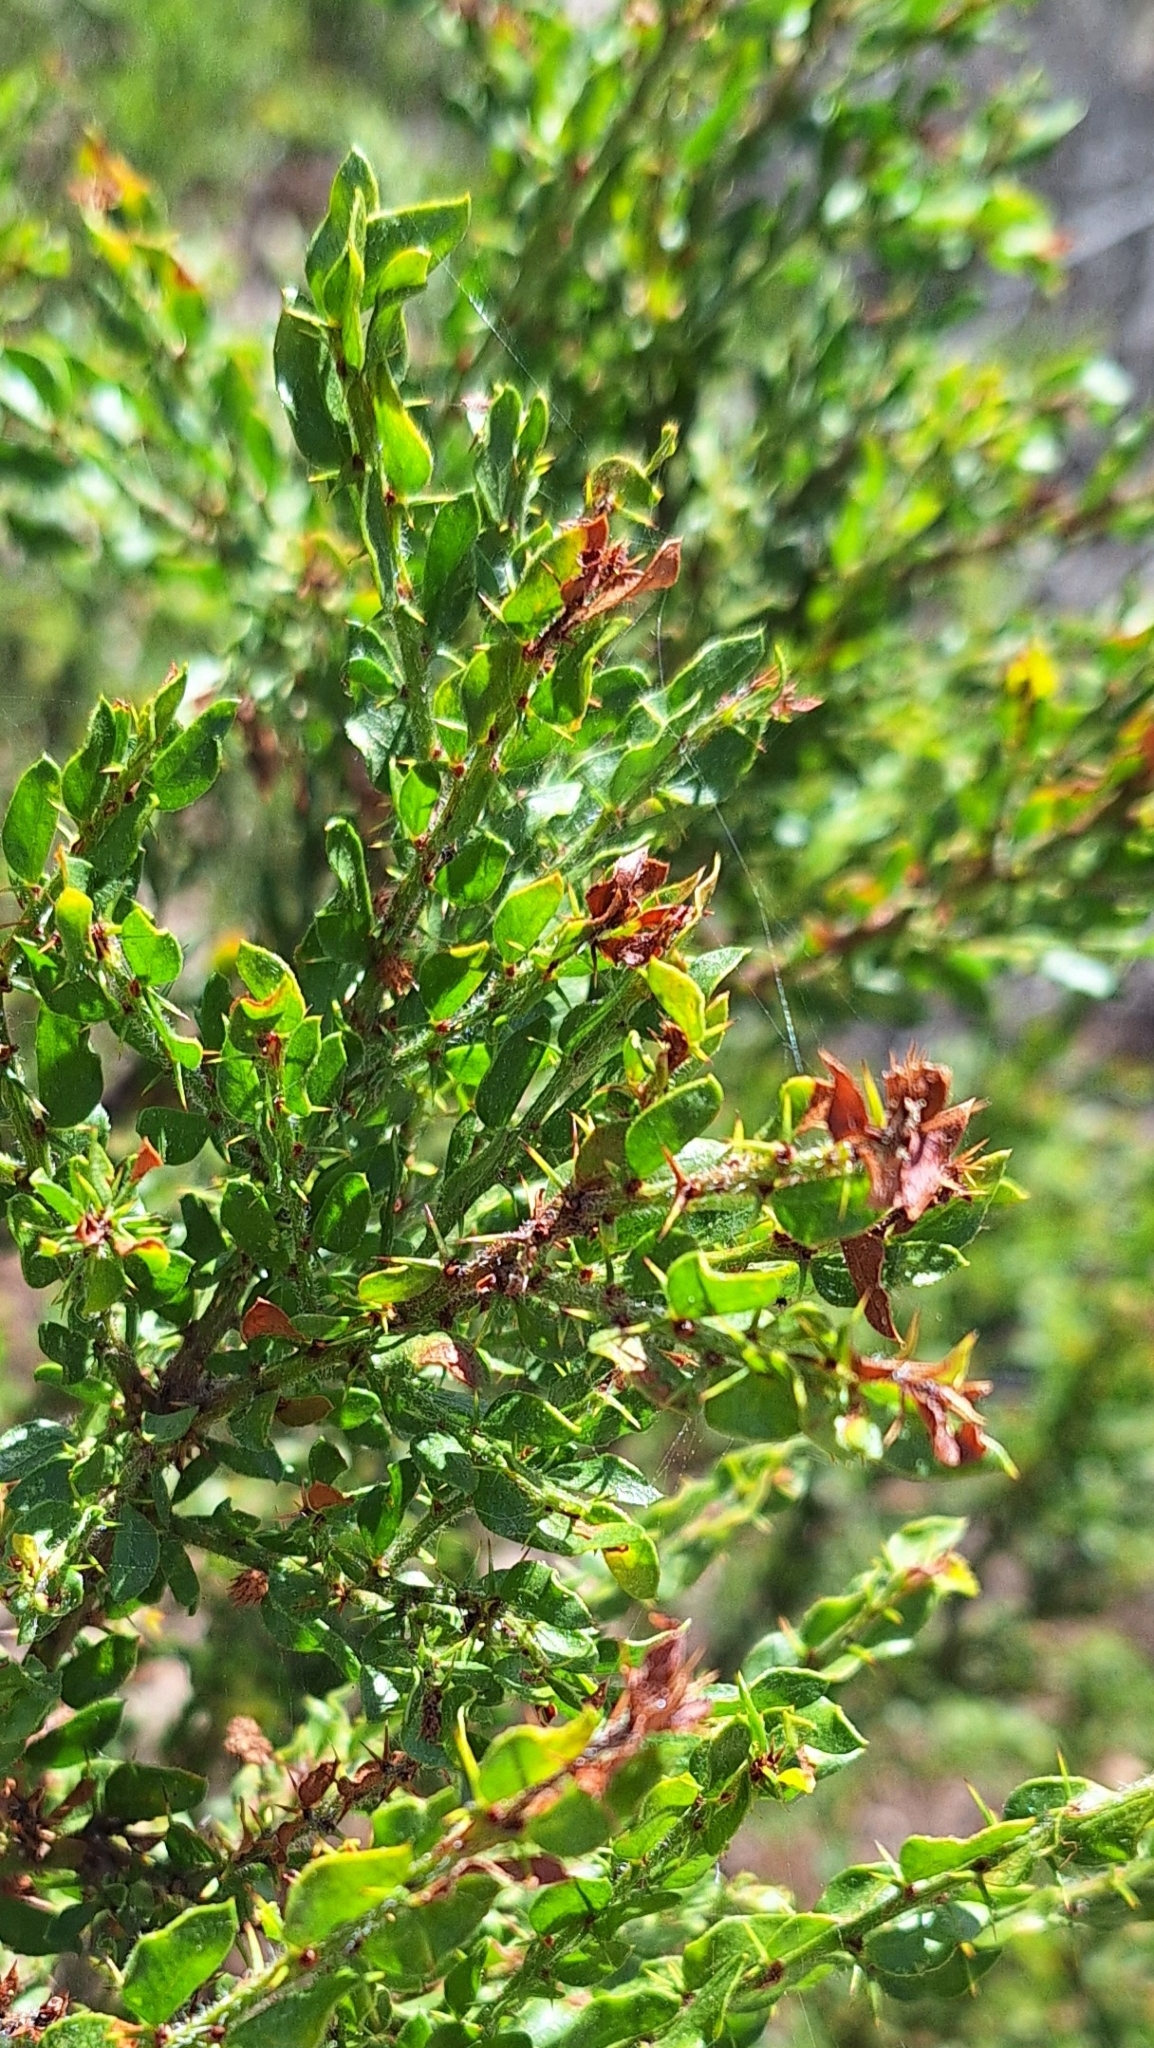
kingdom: Plantae
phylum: Tracheophyta
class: Magnoliopsida
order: Fabales
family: Fabaceae
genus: Acacia
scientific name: Acacia paradoxa
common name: Paradox acacia
